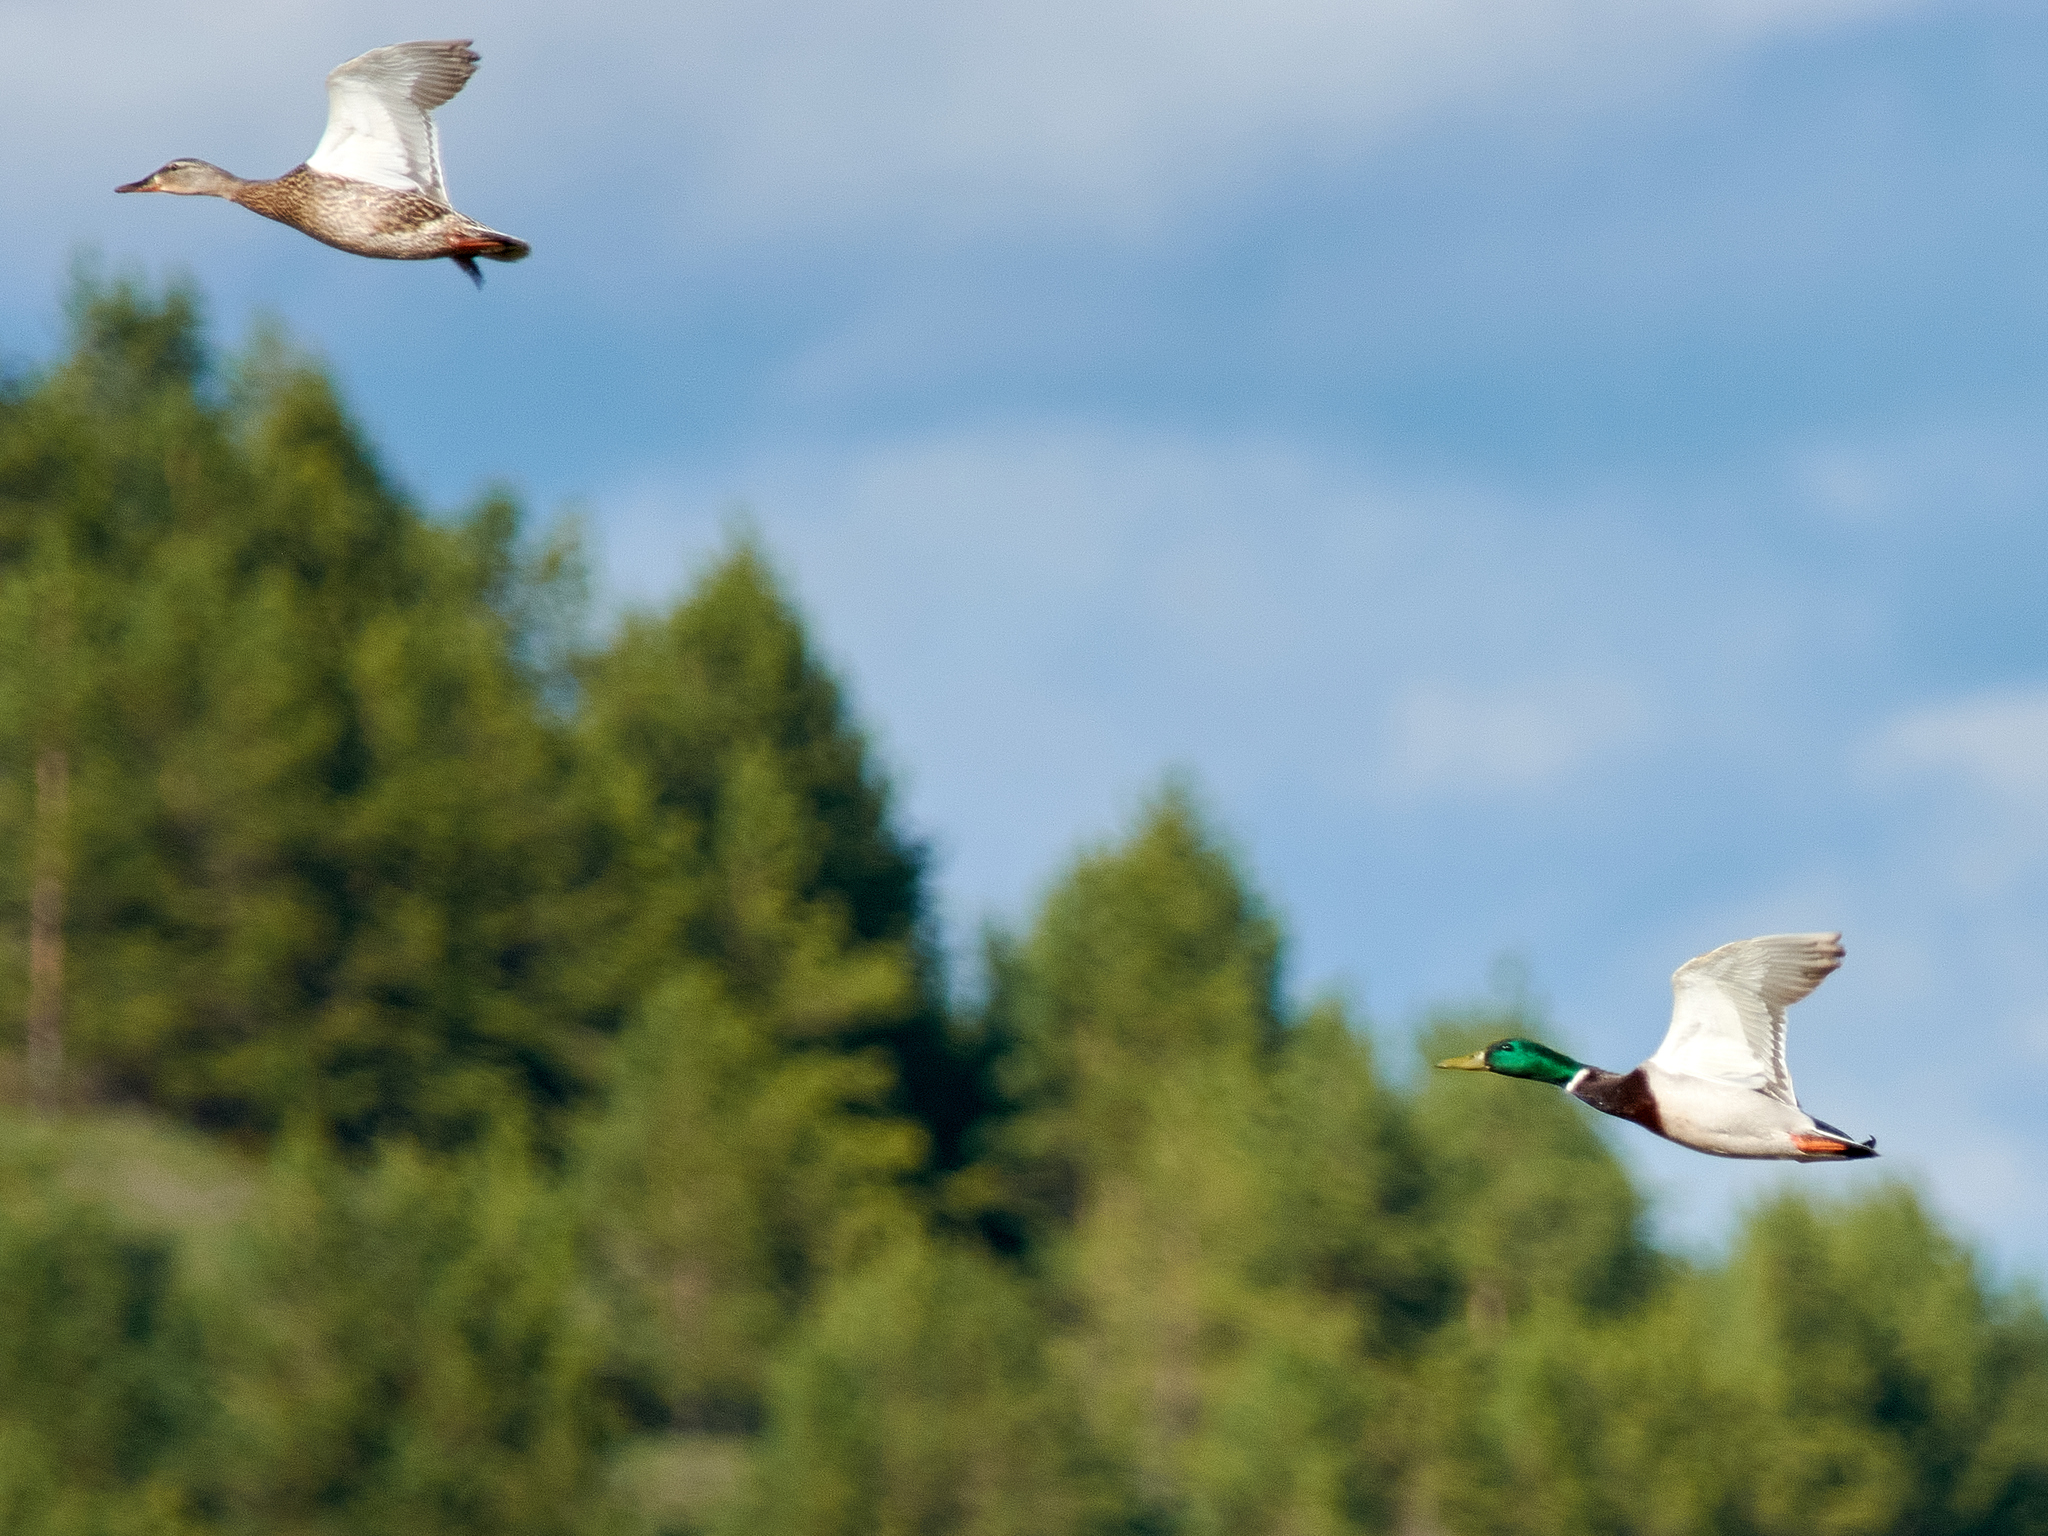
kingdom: Animalia
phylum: Chordata
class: Aves
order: Anseriformes
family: Anatidae
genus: Anas
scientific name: Anas platyrhynchos
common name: Mallard
